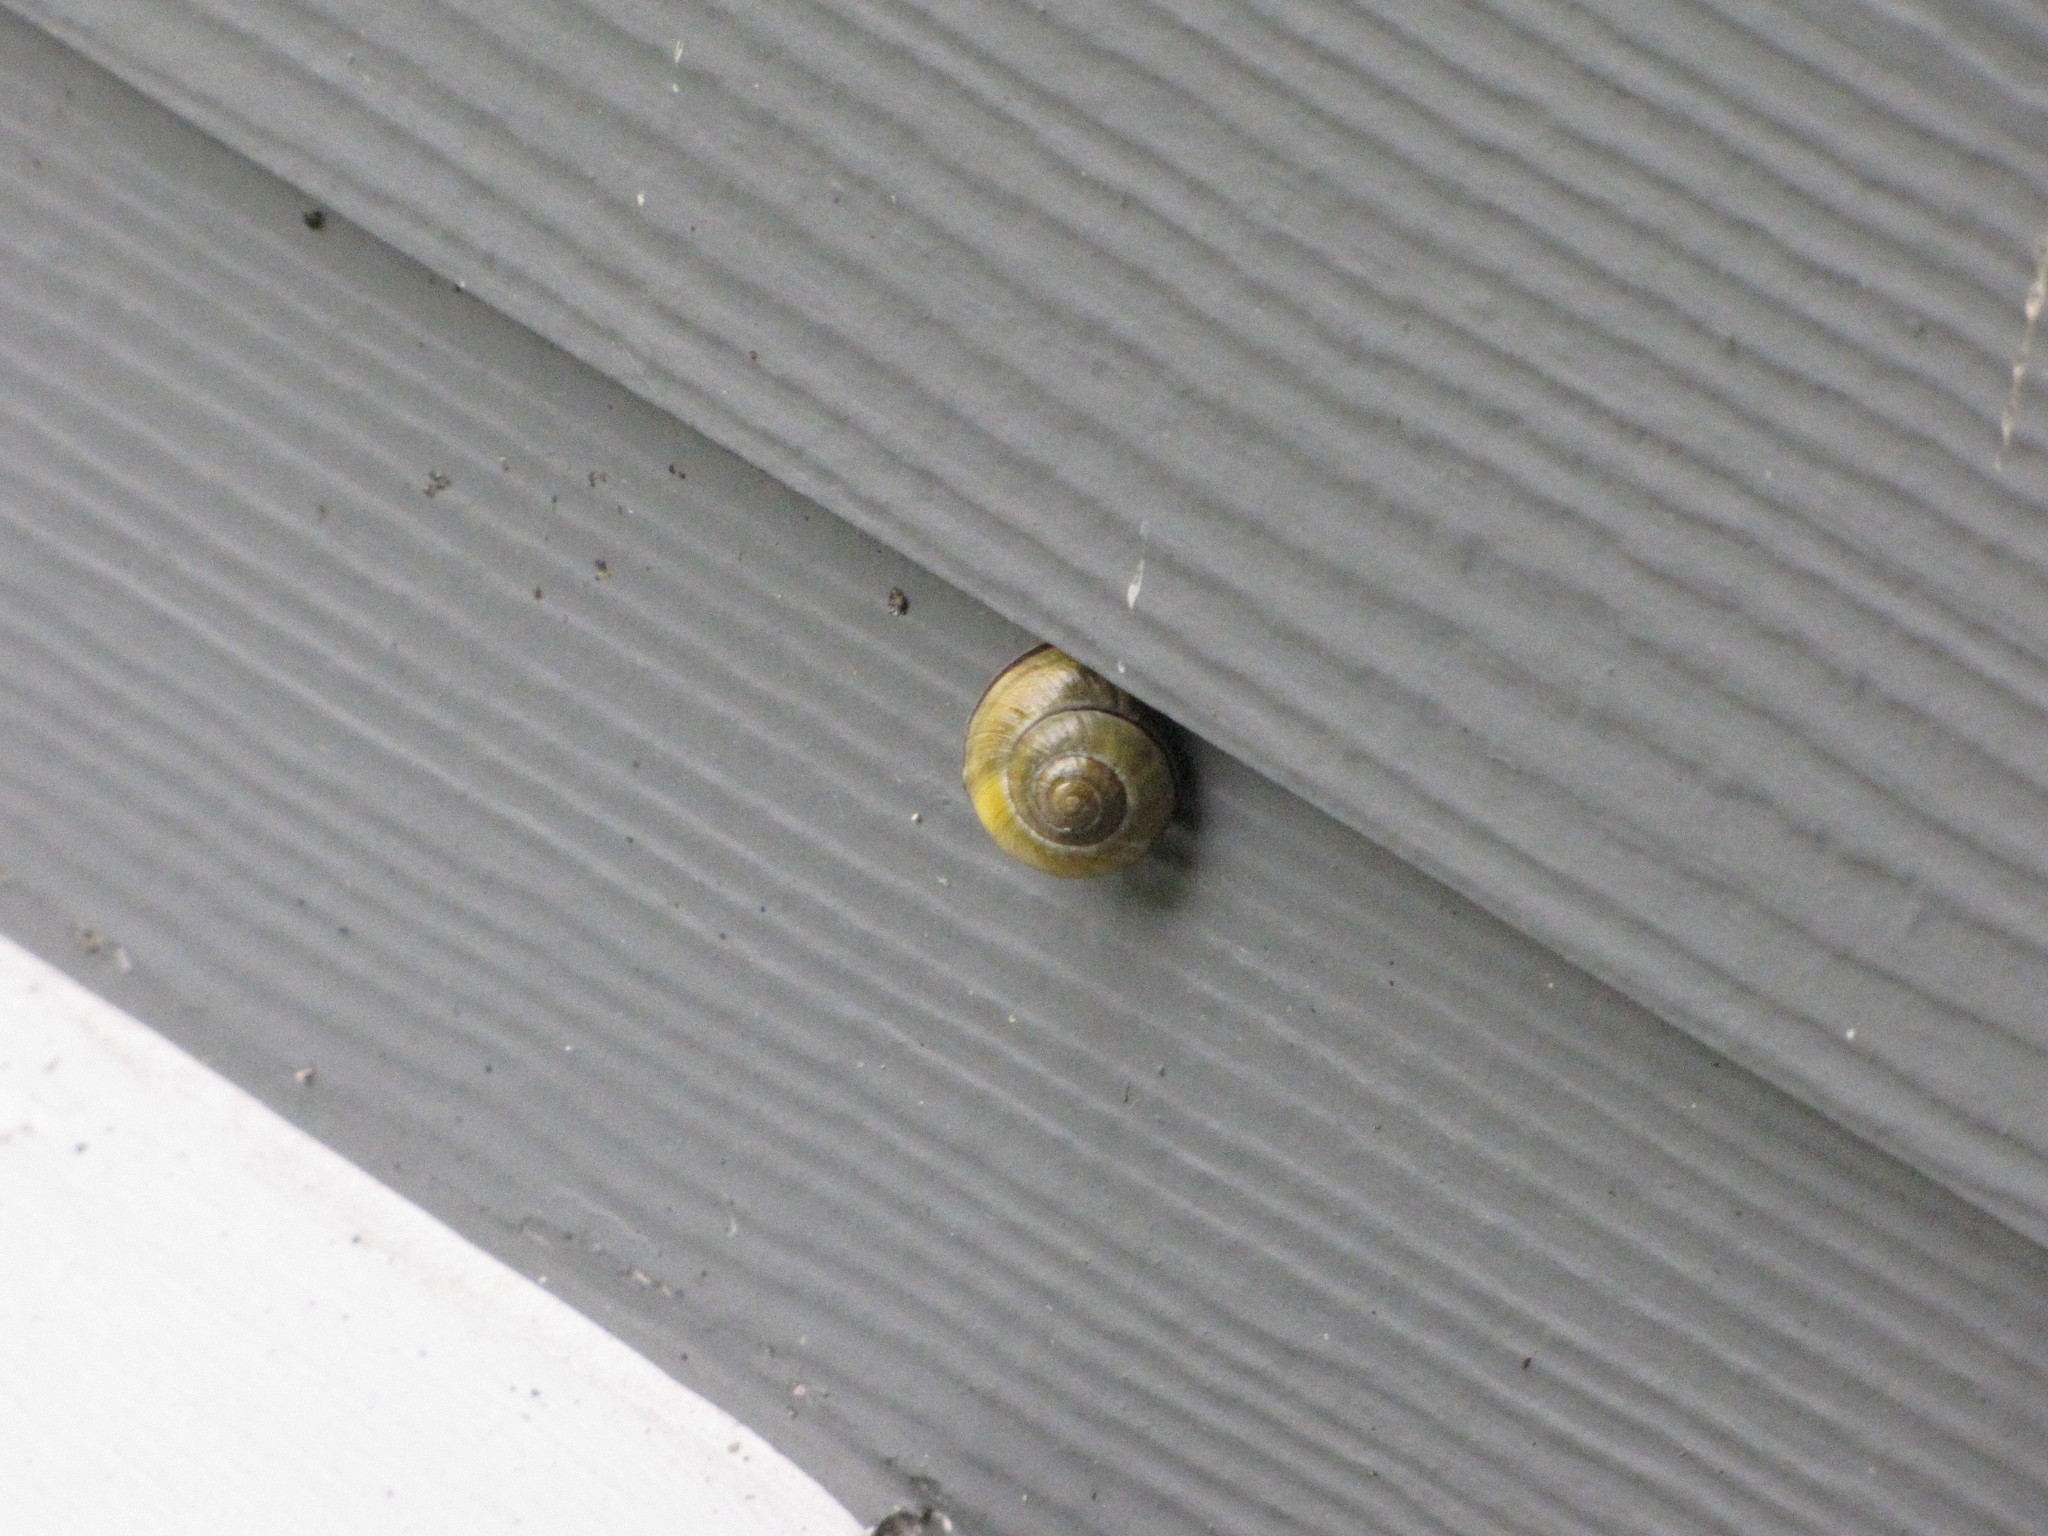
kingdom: Animalia
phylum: Mollusca
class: Gastropoda
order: Stylommatophora
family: Helicidae
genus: Cepaea
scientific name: Cepaea nemoralis
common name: Grovesnail
